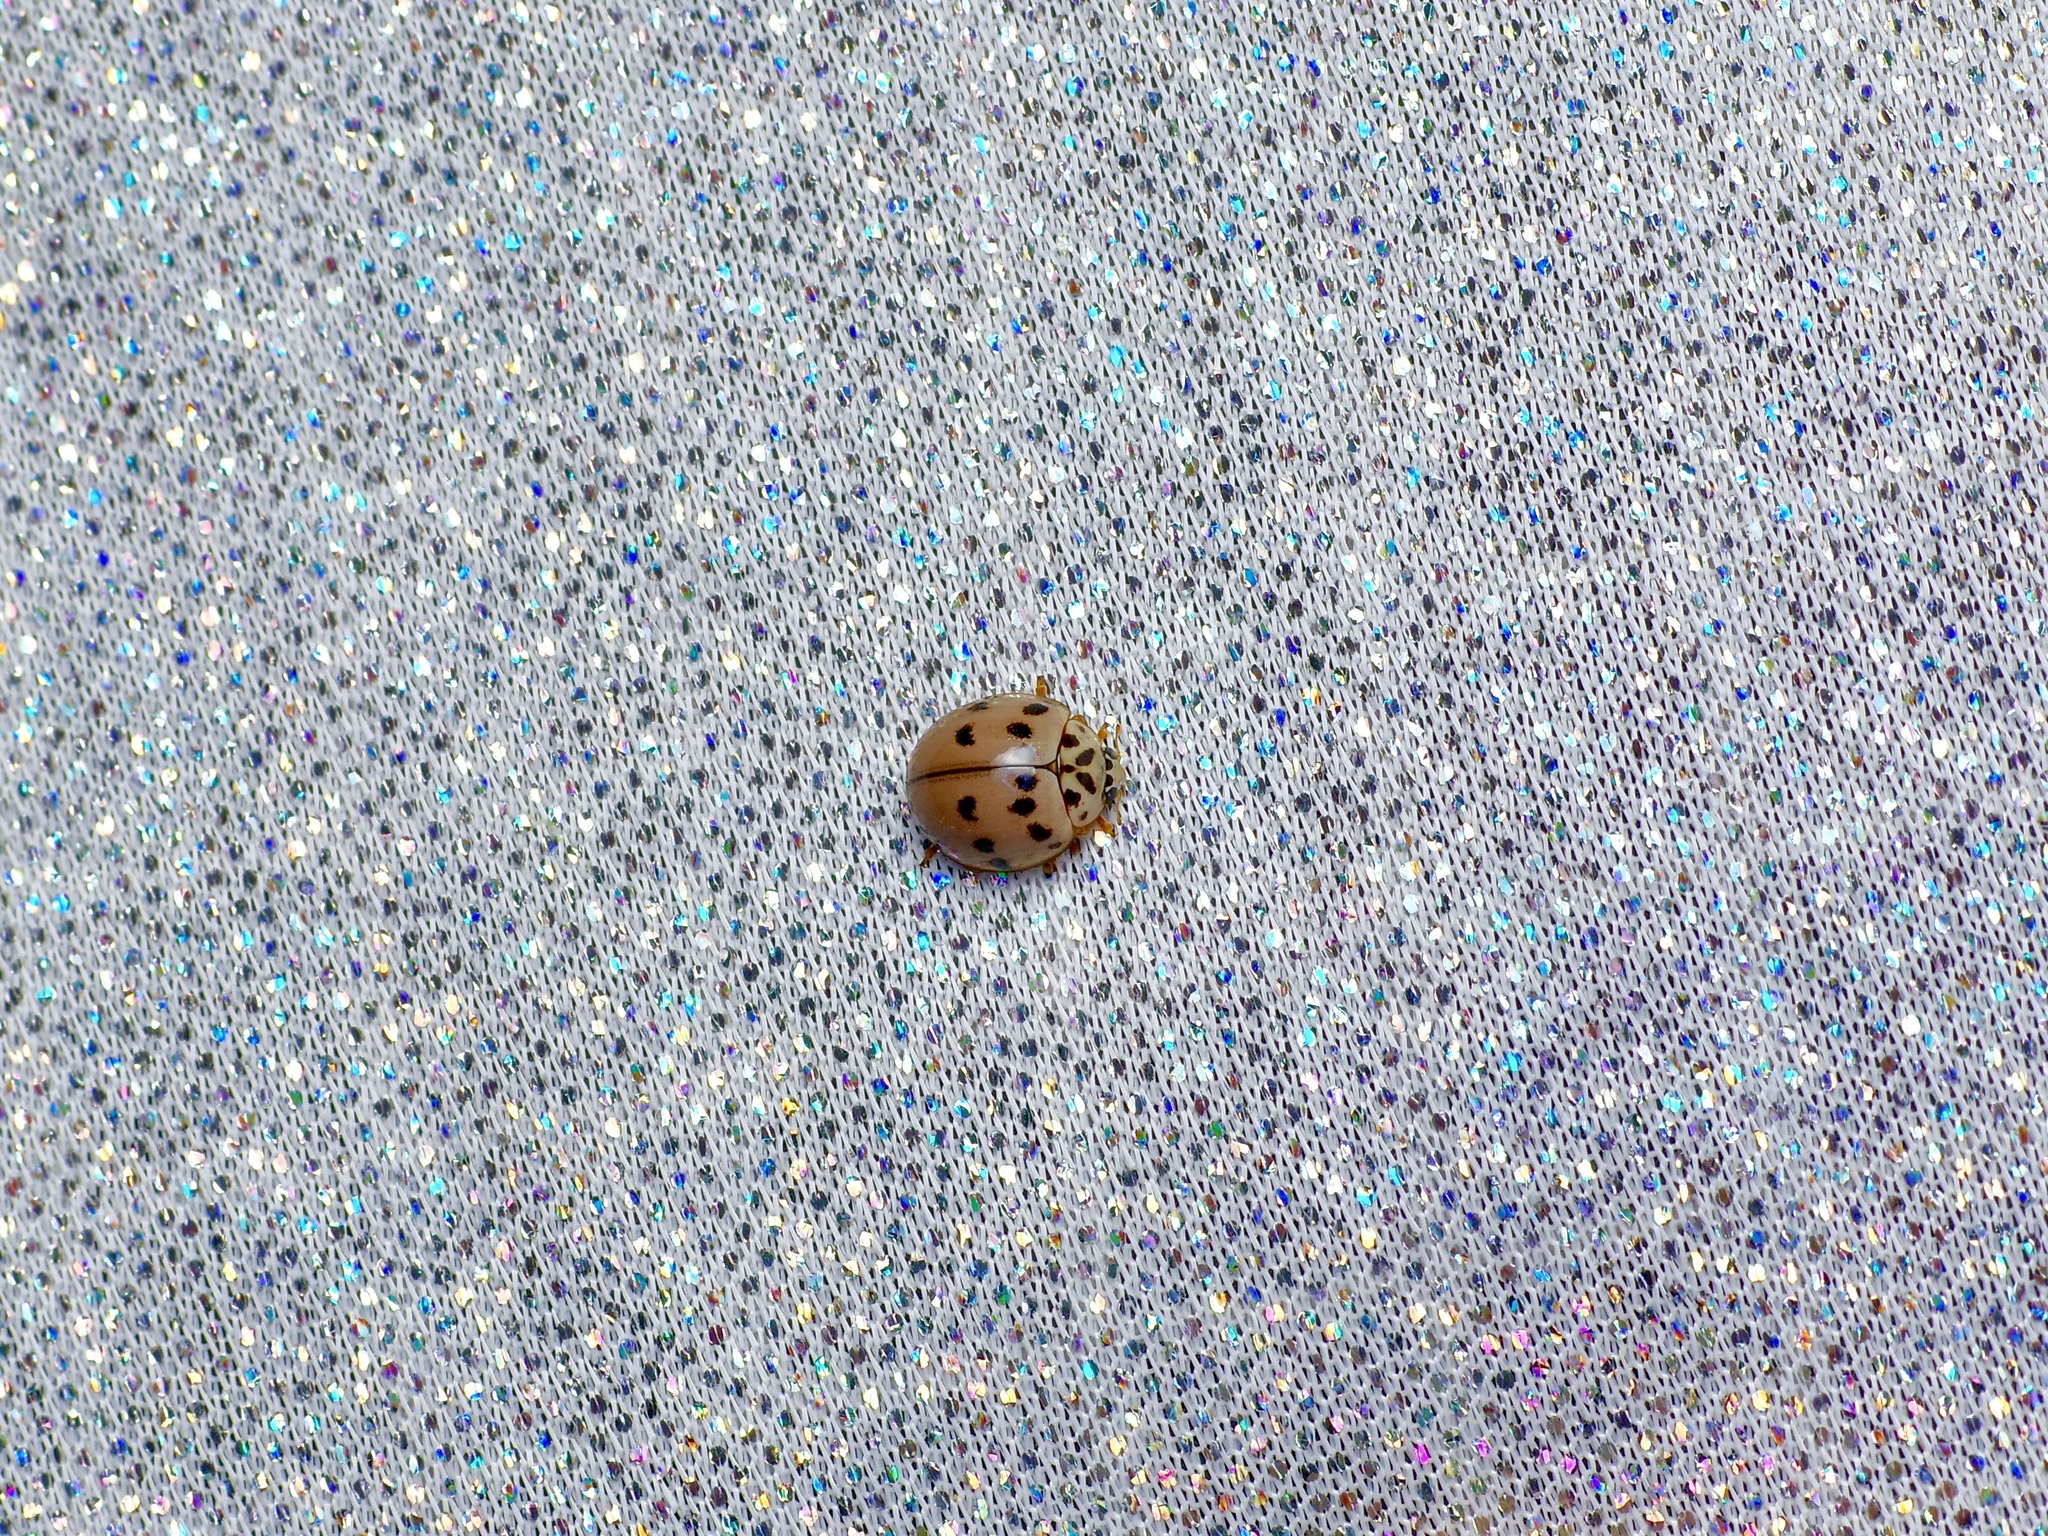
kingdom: Animalia
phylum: Arthropoda
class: Insecta
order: Coleoptera
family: Coccinellidae
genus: Olla
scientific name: Olla v-nigrum
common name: Ashy gray lady beetle
